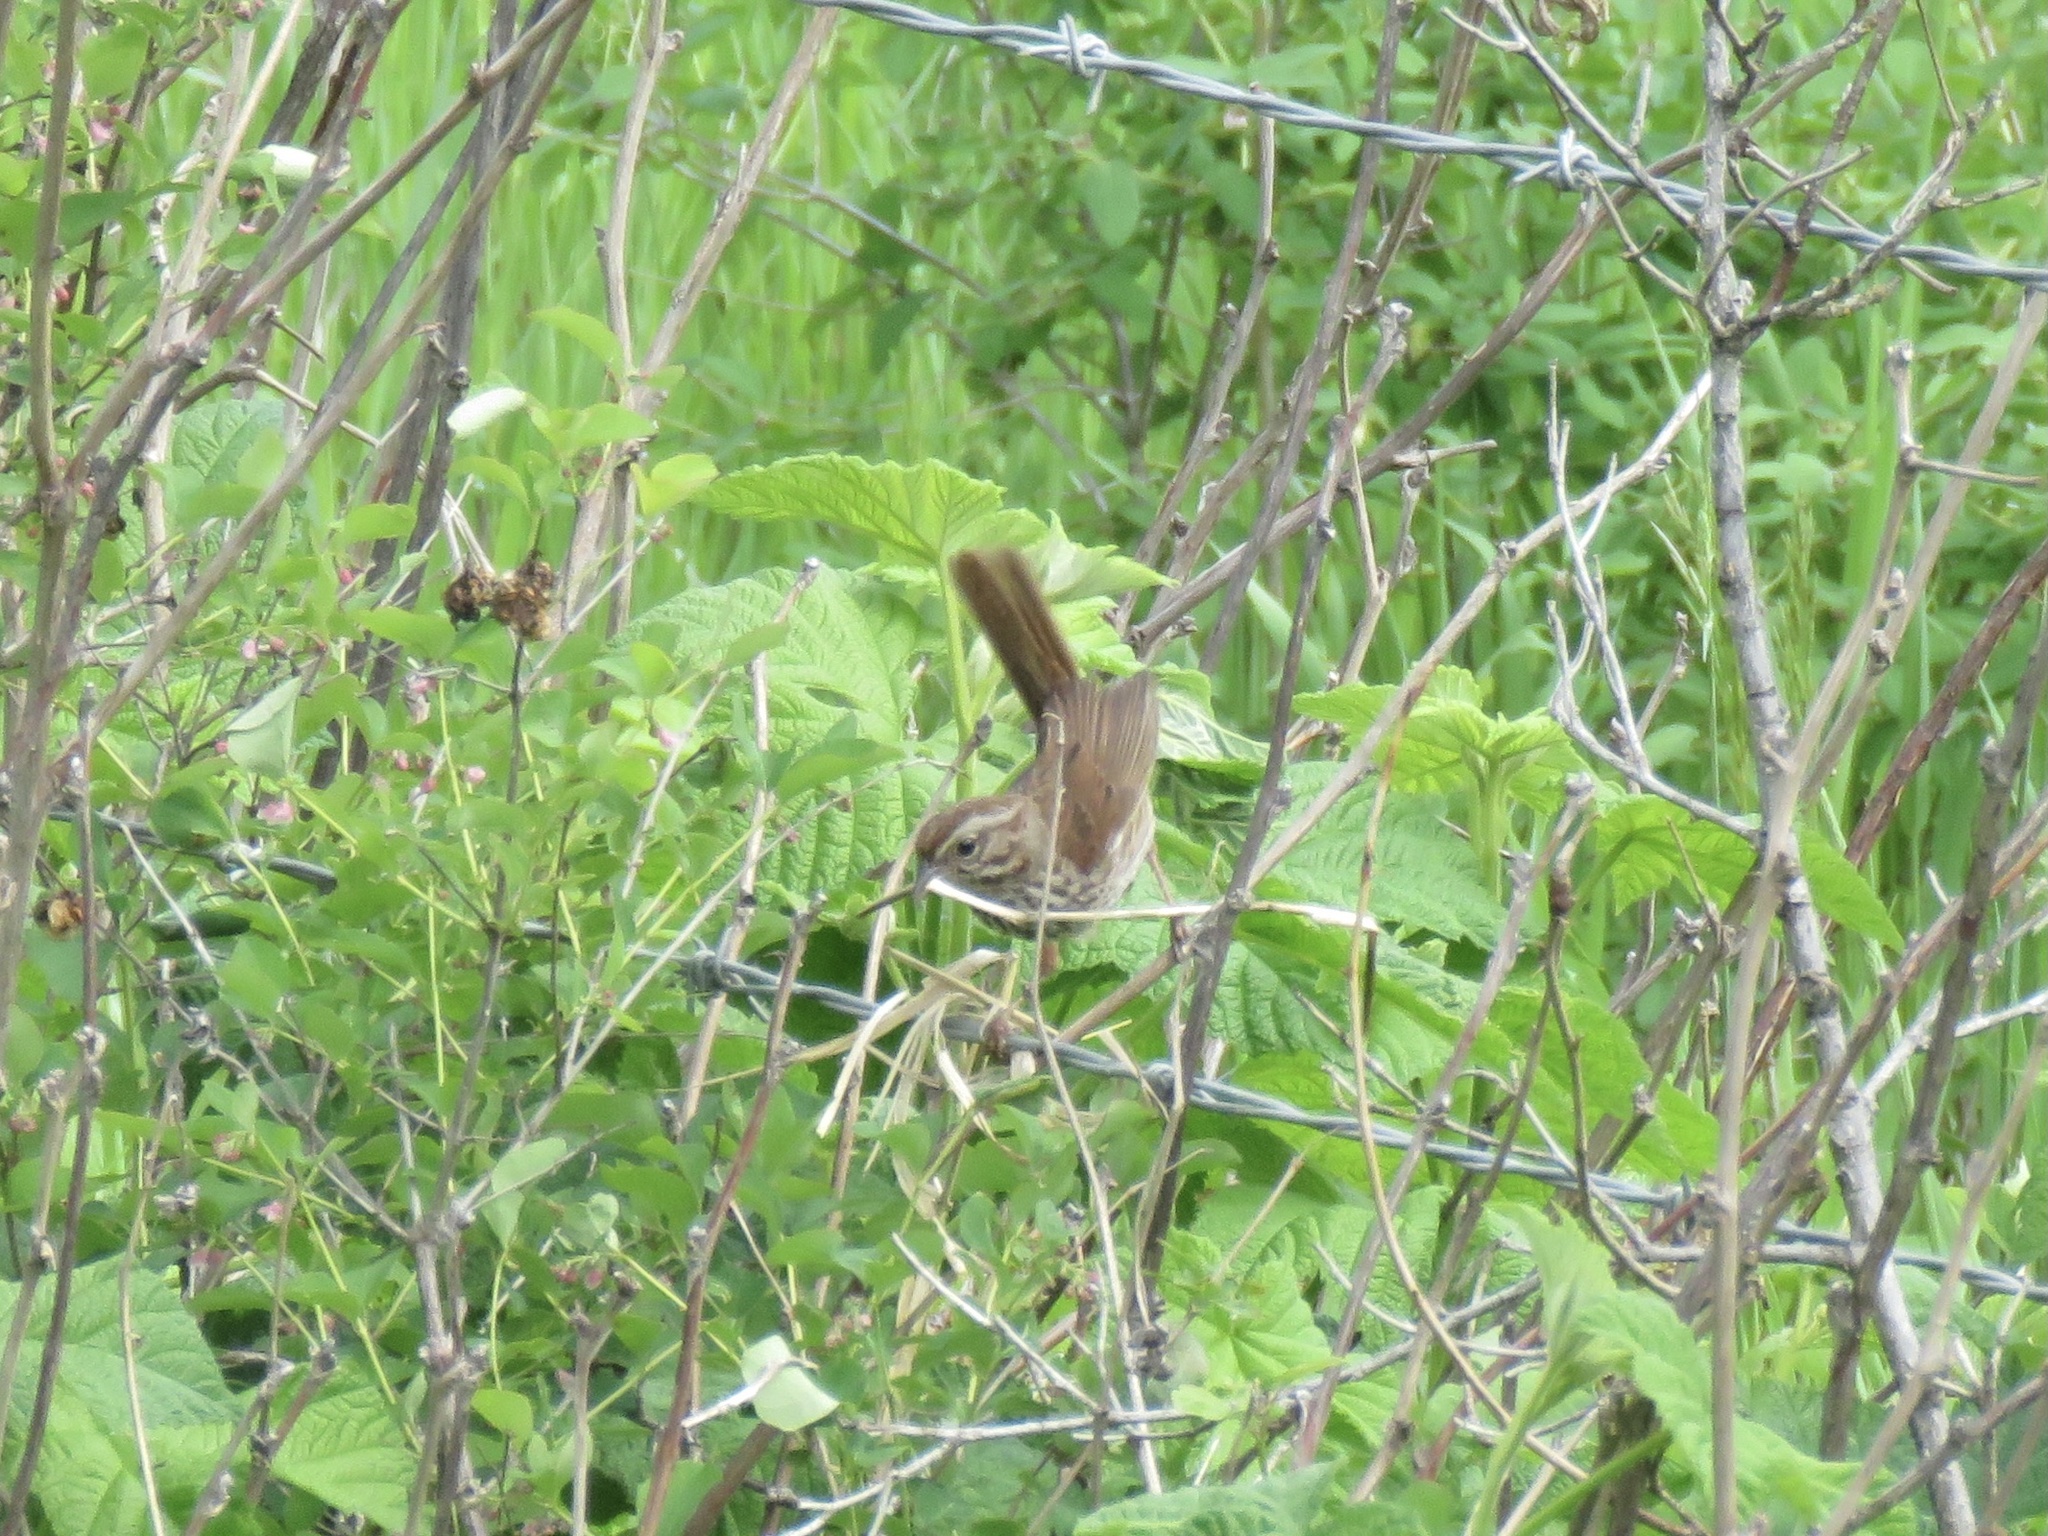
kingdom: Animalia
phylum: Chordata
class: Aves
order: Passeriformes
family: Passerellidae
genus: Melospiza
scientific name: Melospiza melodia
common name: Song sparrow
